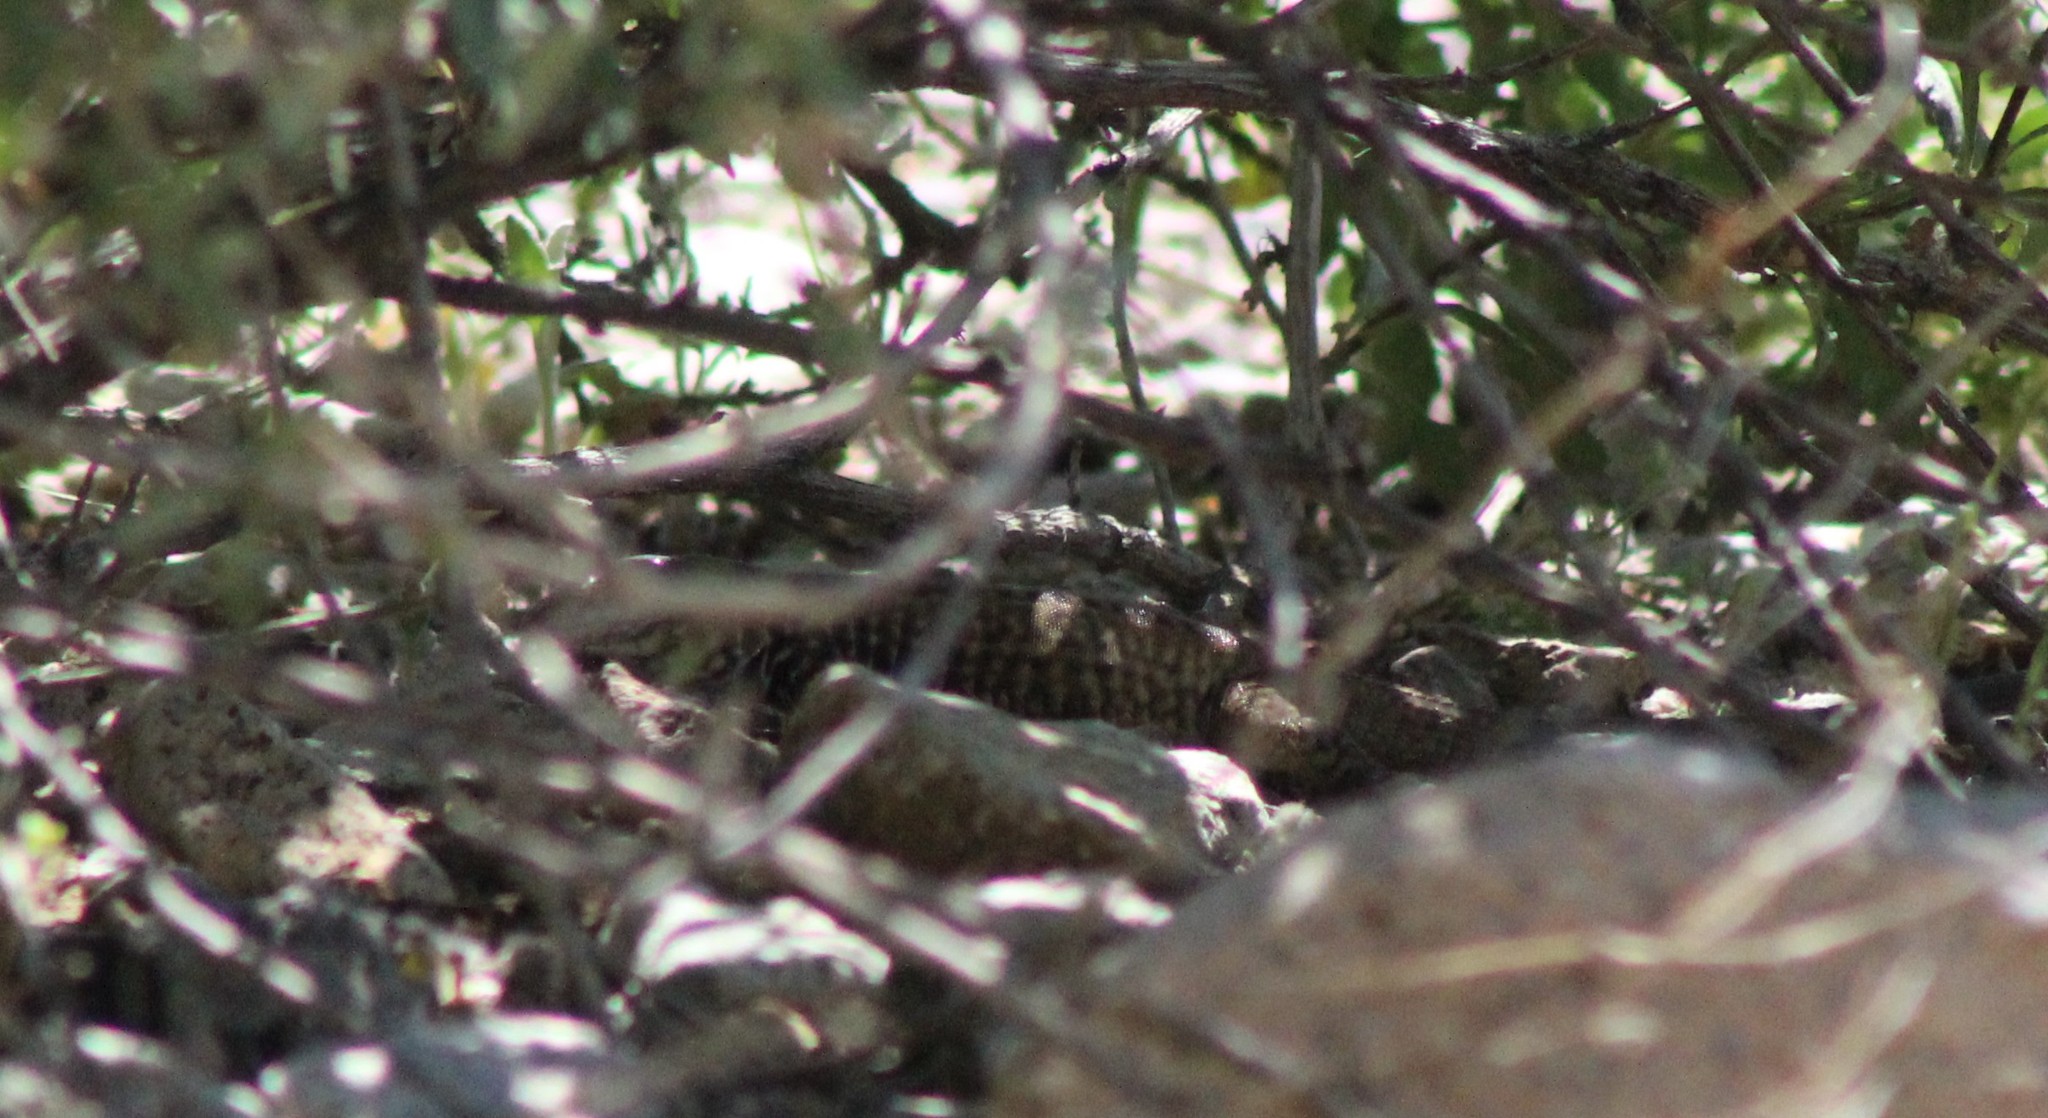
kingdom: Animalia
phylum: Chordata
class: Squamata
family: Teiidae
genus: Aspidoscelis
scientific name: Aspidoscelis tigris
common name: Tiger whiptail
